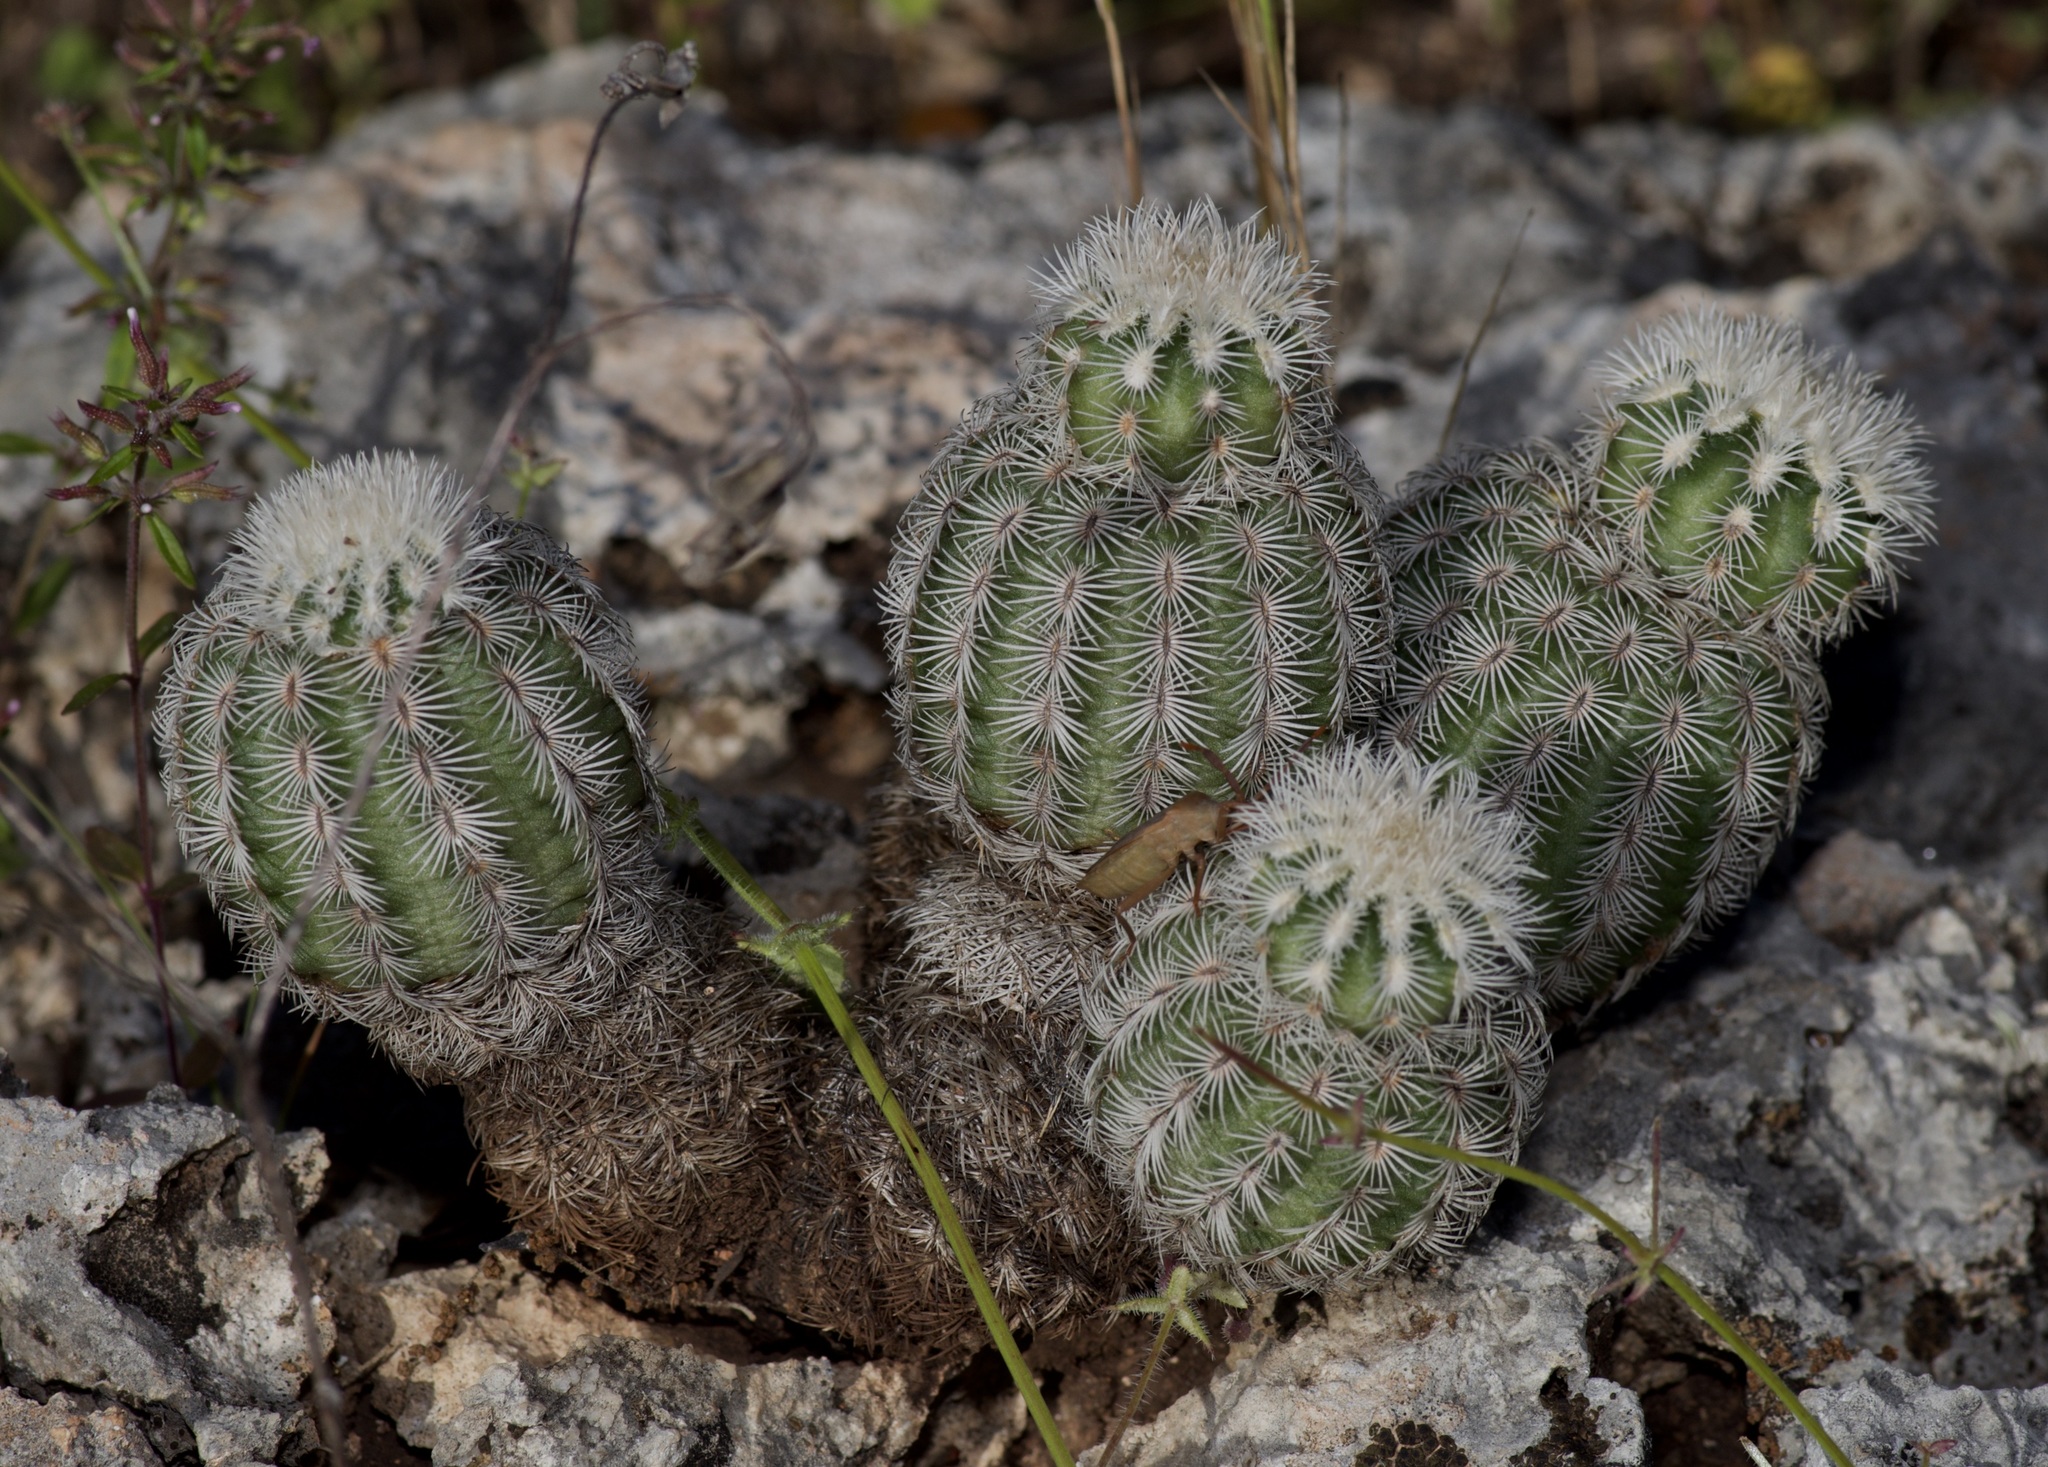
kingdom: Plantae
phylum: Tracheophyta
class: Magnoliopsida
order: Caryophyllales
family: Cactaceae
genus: Echinocereus
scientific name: Echinocereus reichenbachii
